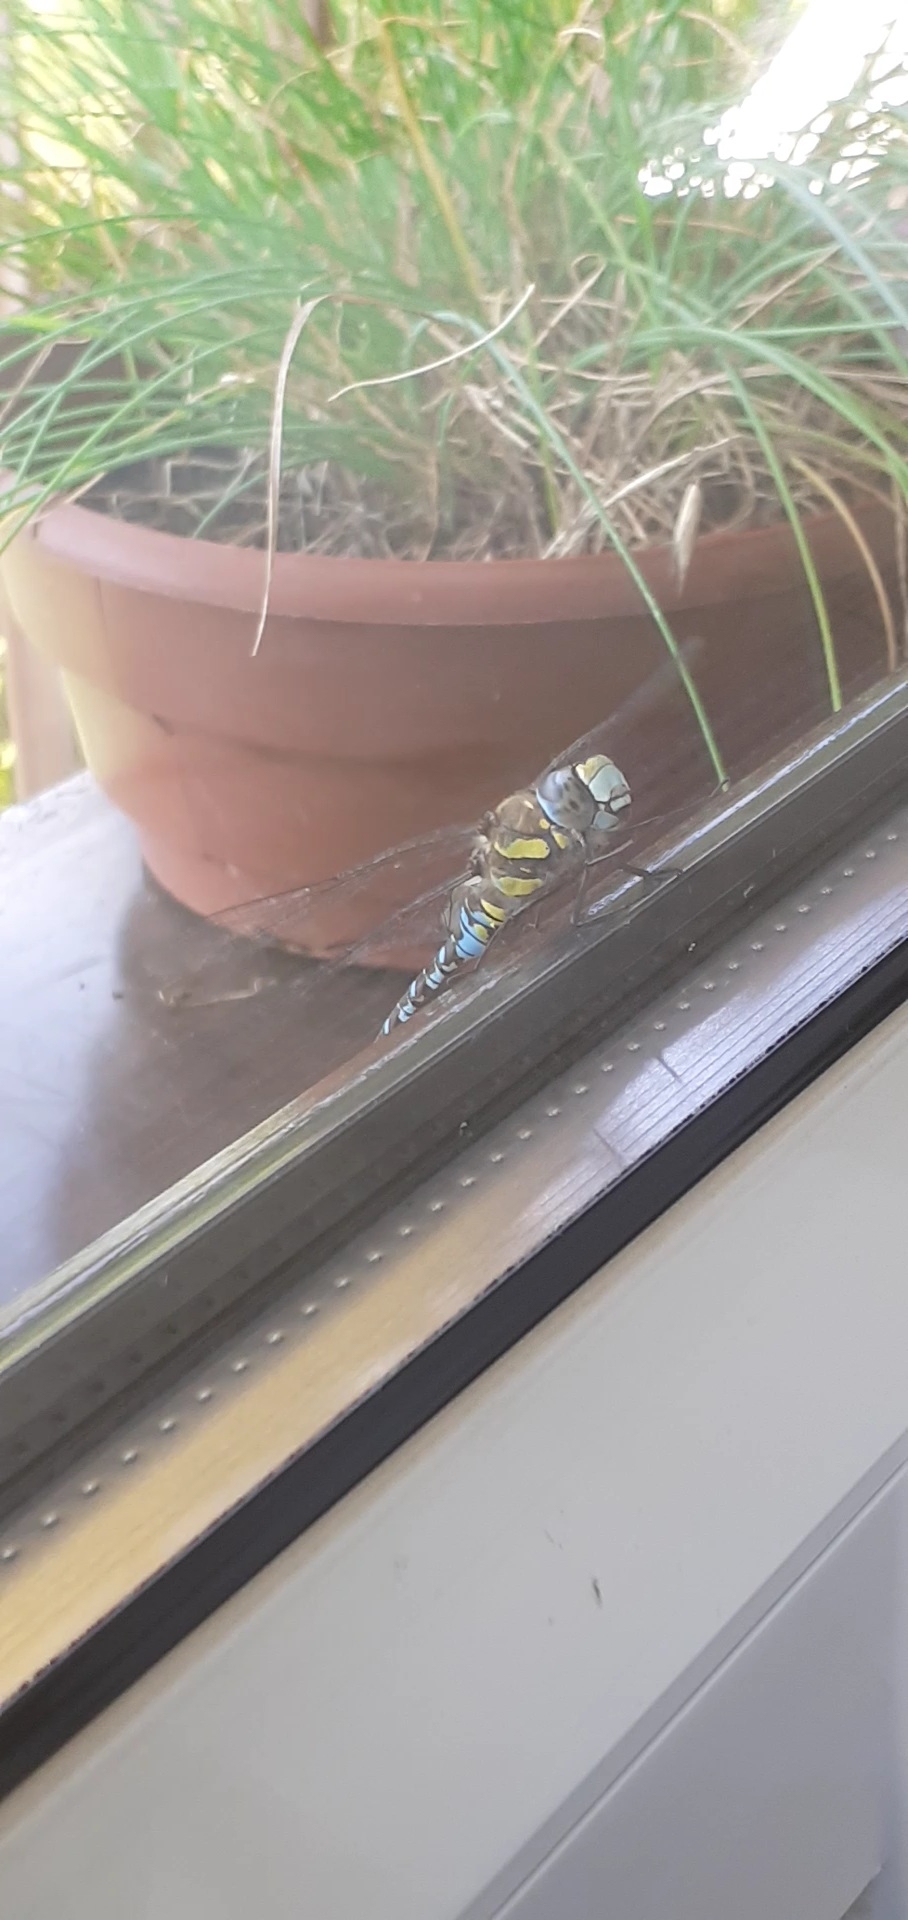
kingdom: Animalia
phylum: Arthropoda
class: Insecta
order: Odonata
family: Aeshnidae
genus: Aeshna
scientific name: Aeshna mixta
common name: Migrant hawker
